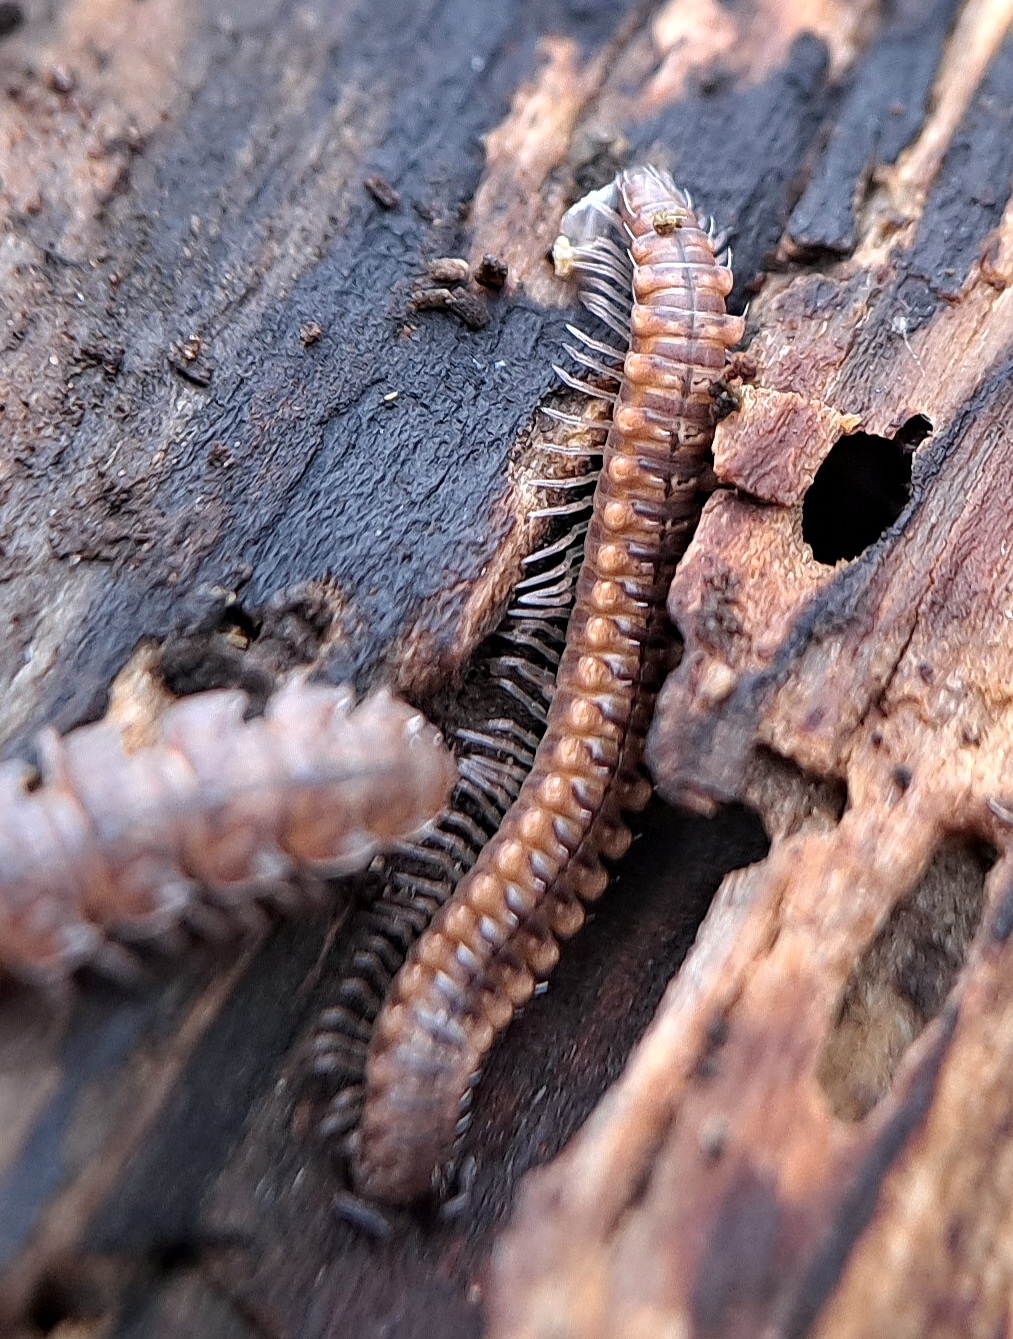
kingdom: Animalia
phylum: Arthropoda
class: Diplopoda
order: Chordeumatida
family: Craspedosomatidae
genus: Nanogona
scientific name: Nanogona polydesmoides
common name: Eyed flat-backed millipede
